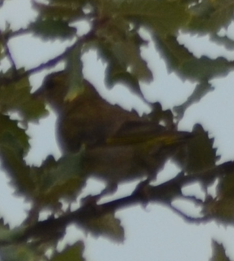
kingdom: Plantae
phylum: Tracheophyta
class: Liliopsida
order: Poales
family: Poaceae
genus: Chloris
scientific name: Chloris chloris
